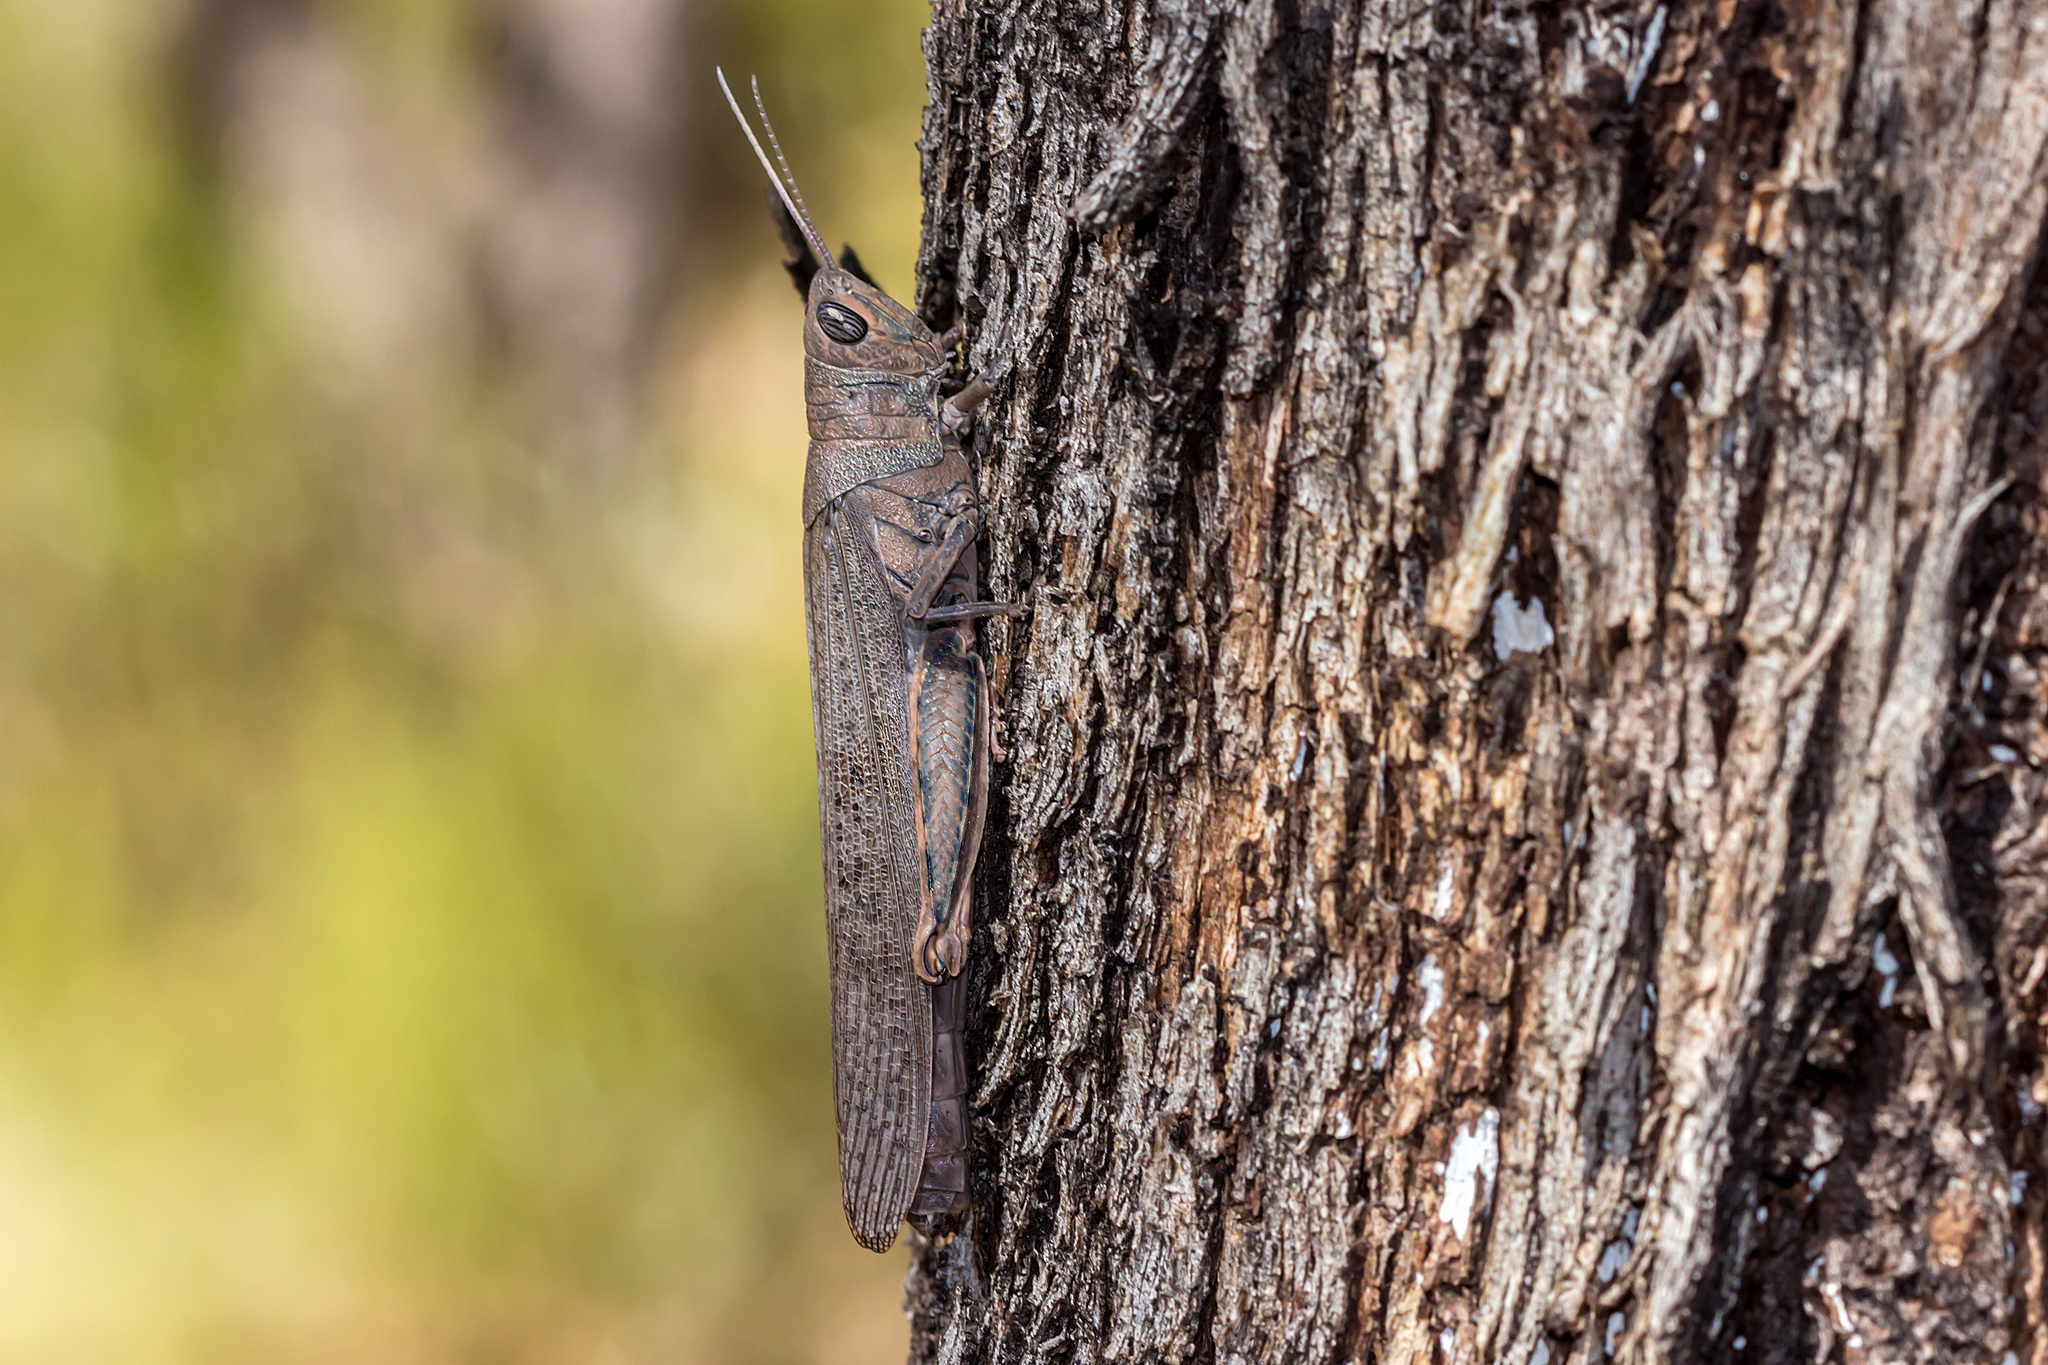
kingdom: Animalia
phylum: Arthropoda
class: Insecta
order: Orthoptera
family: Acrididae
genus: Pardillana
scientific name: Pardillana limbata
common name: Common pardillana
